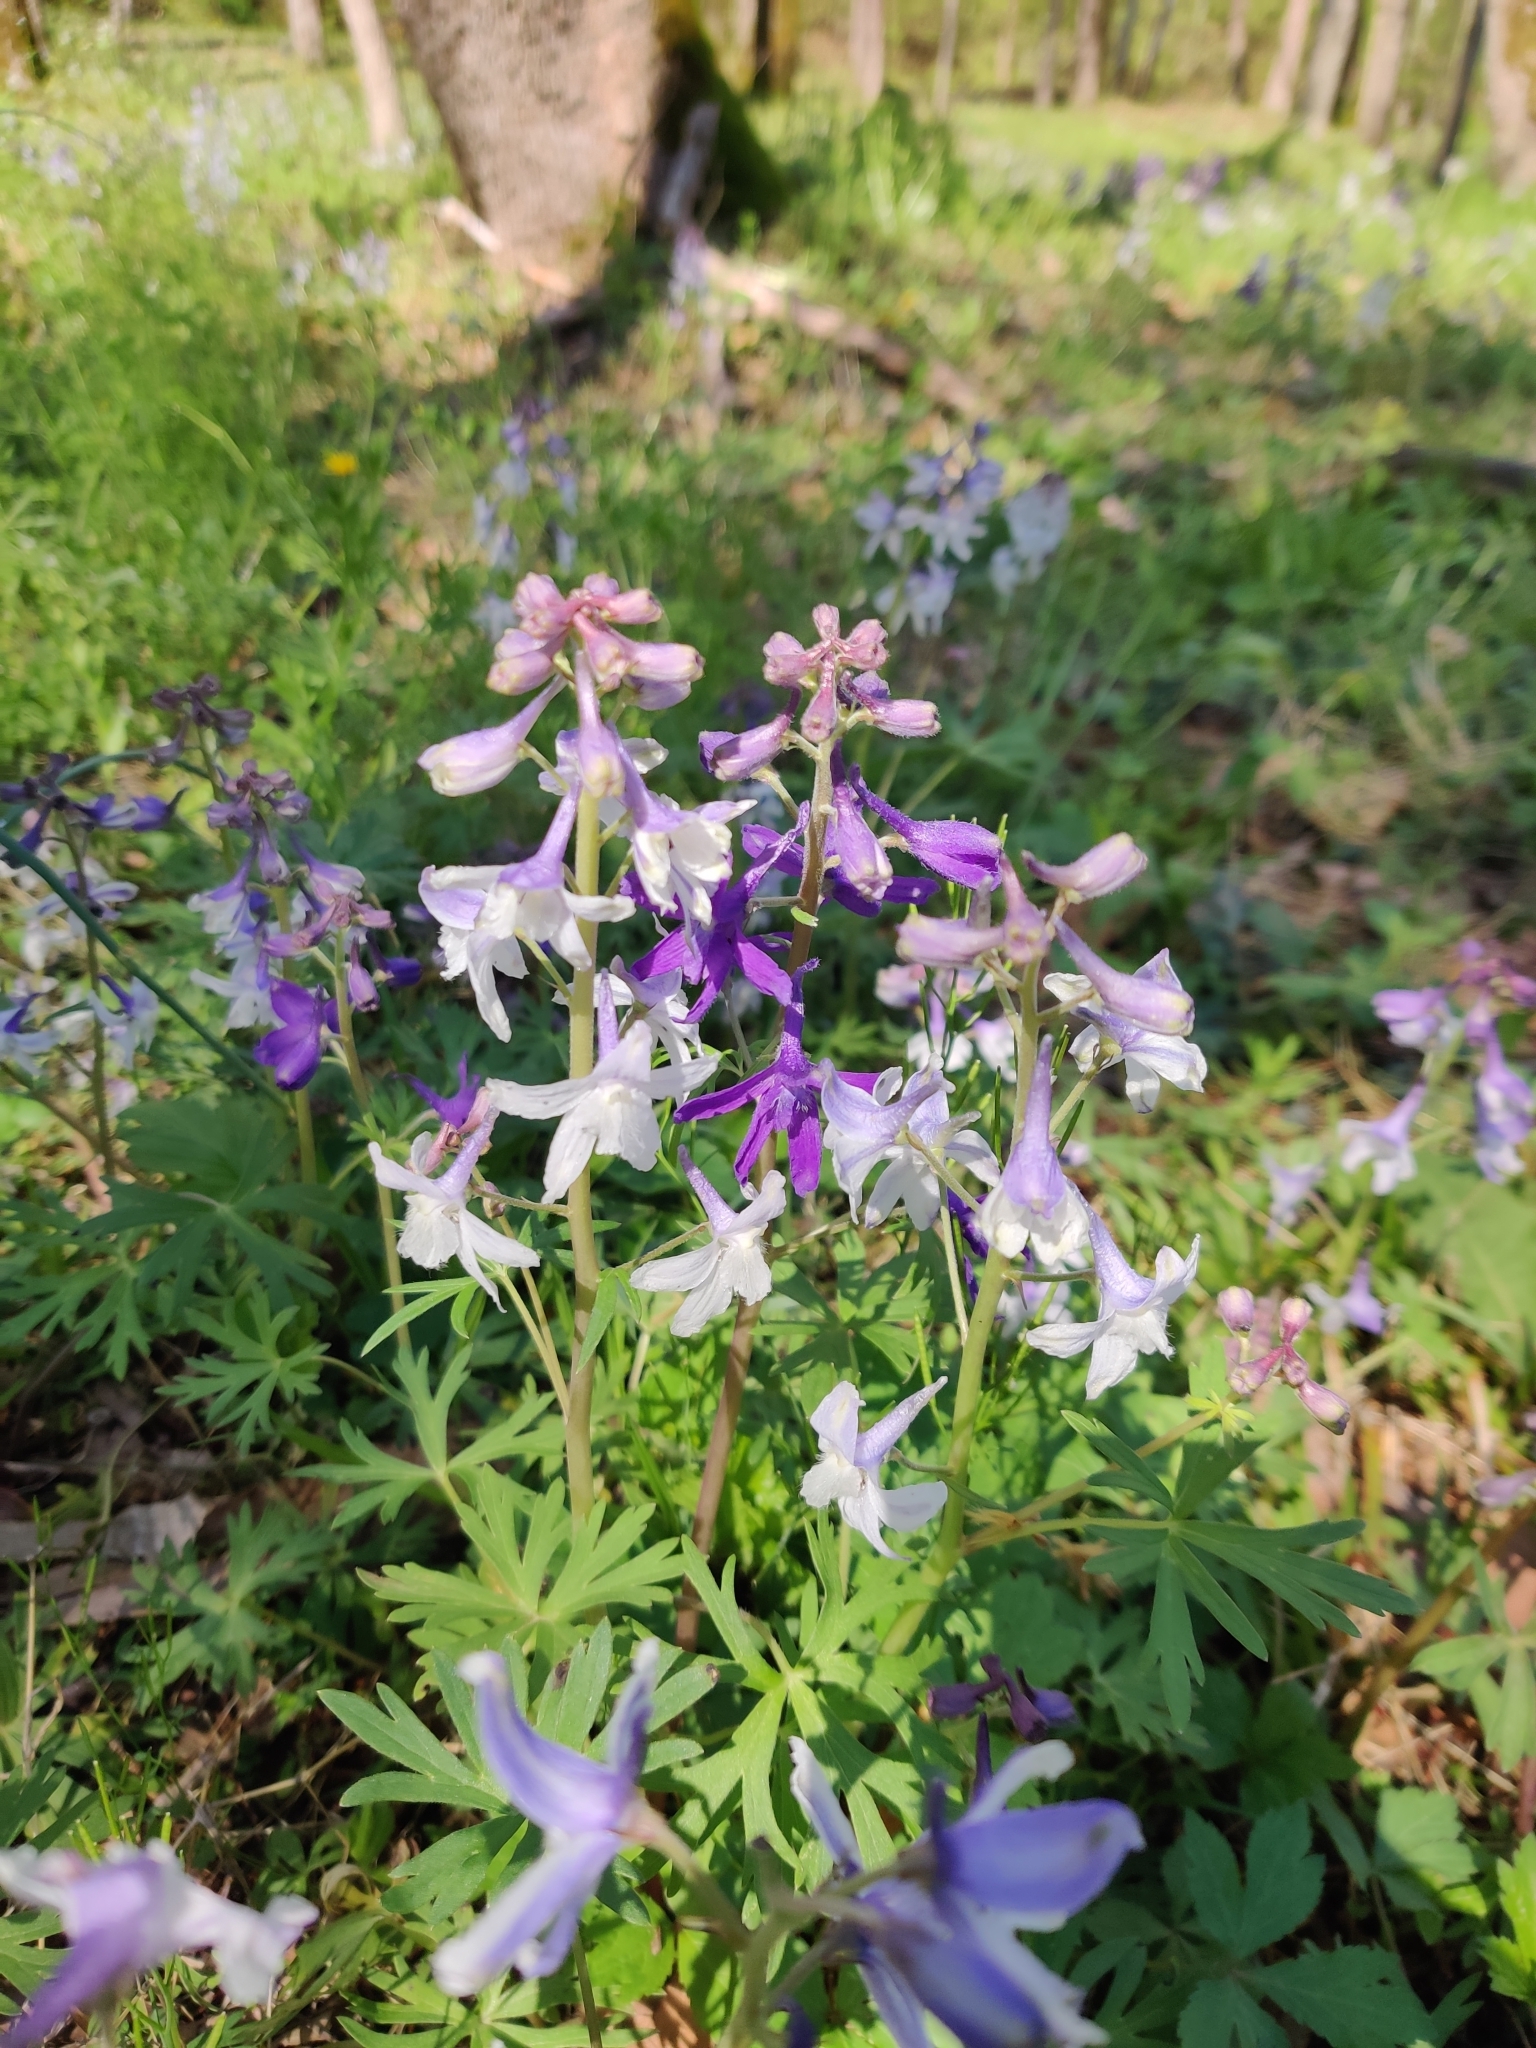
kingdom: Plantae
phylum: Tracheophyta
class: Magnoliopsida
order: Ranunculales
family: Ranunculaceae
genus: Delphinium
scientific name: Delphinium tricorne
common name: Dwarf larkspur
